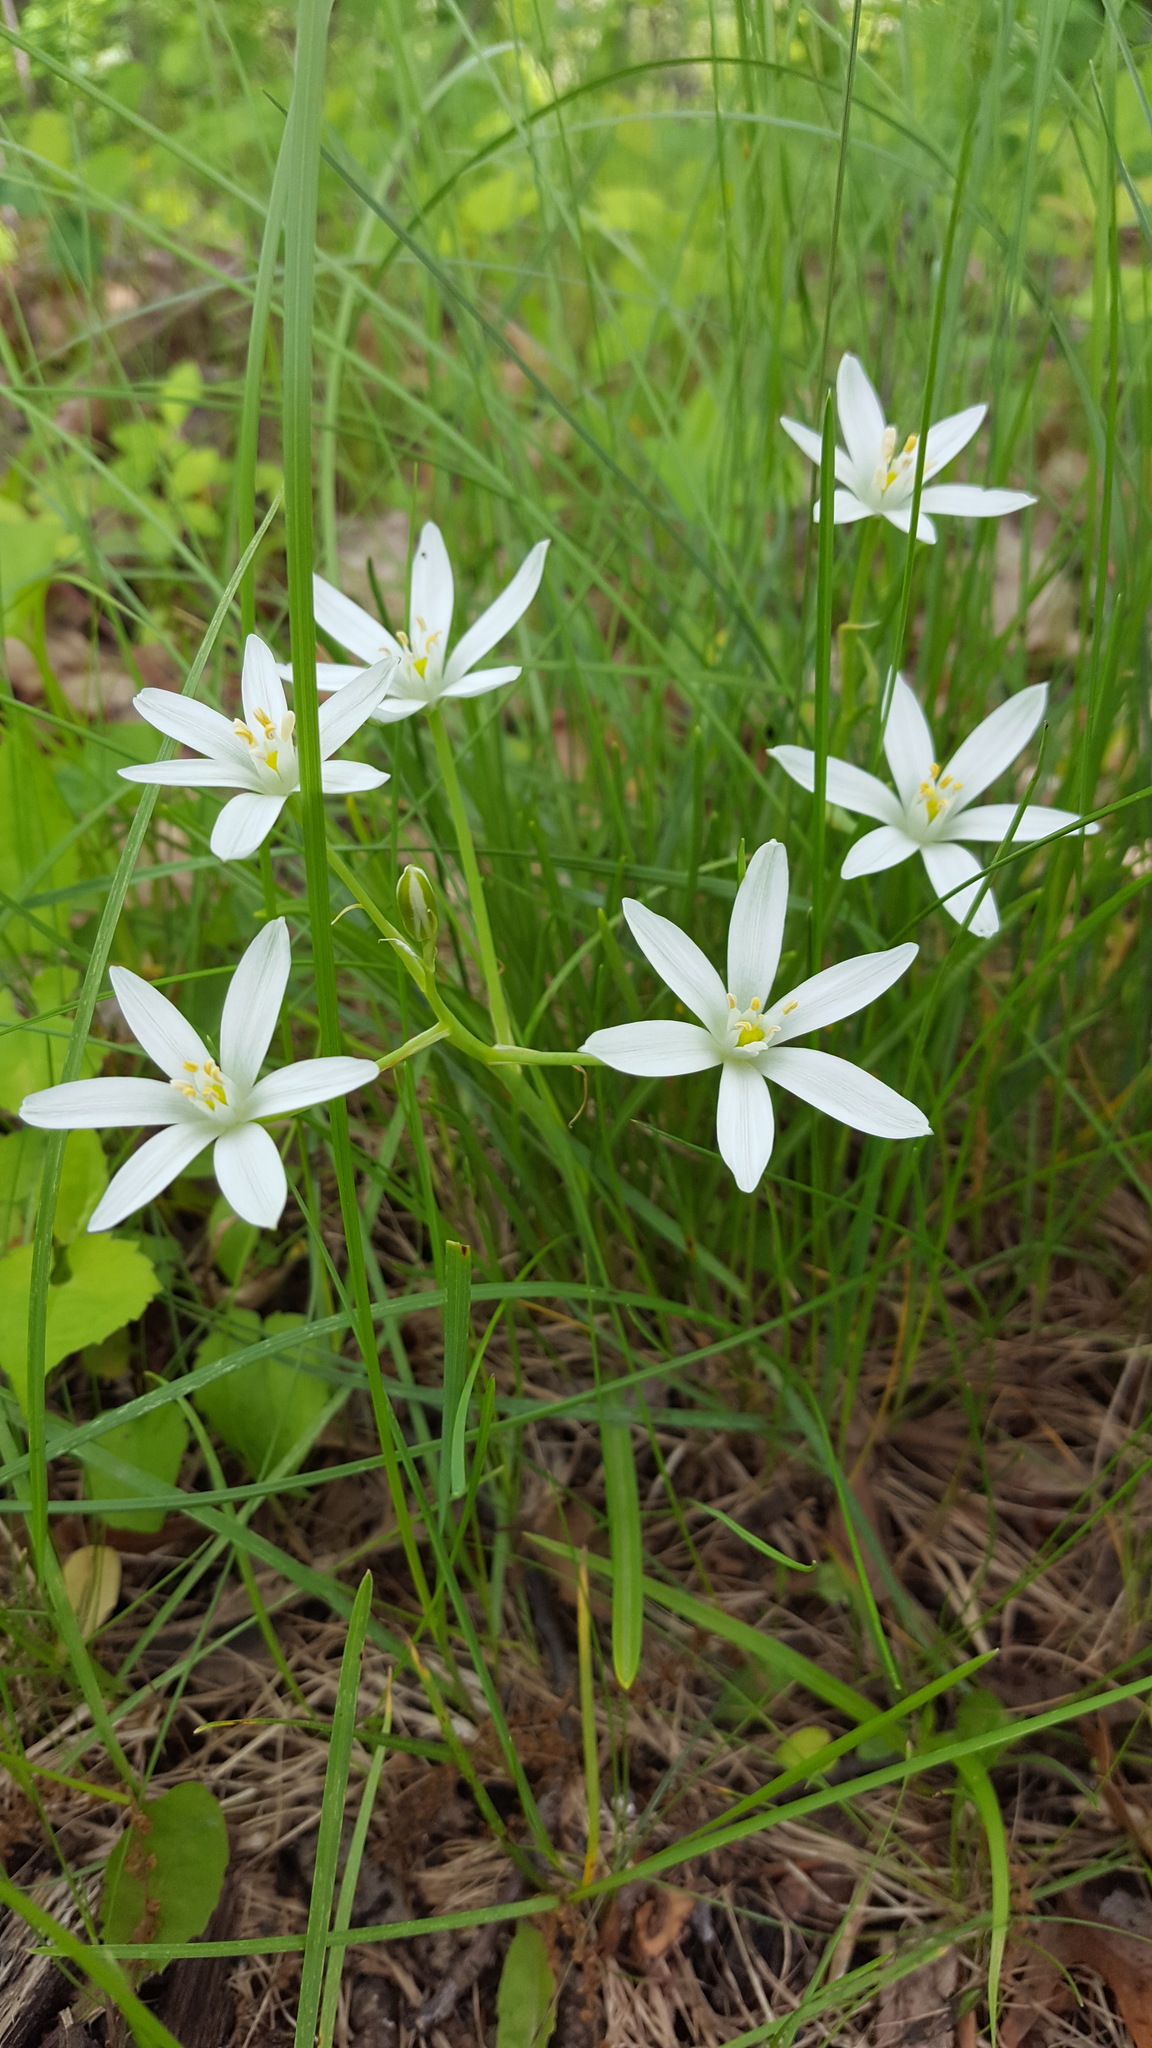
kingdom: Plantae
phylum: Tracheophyta
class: Liliopsida
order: Asparagales
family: Asparagaceae
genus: Ornithogalum
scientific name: Ornithogalum umbellatum
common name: Garden star-of-bethlehem
